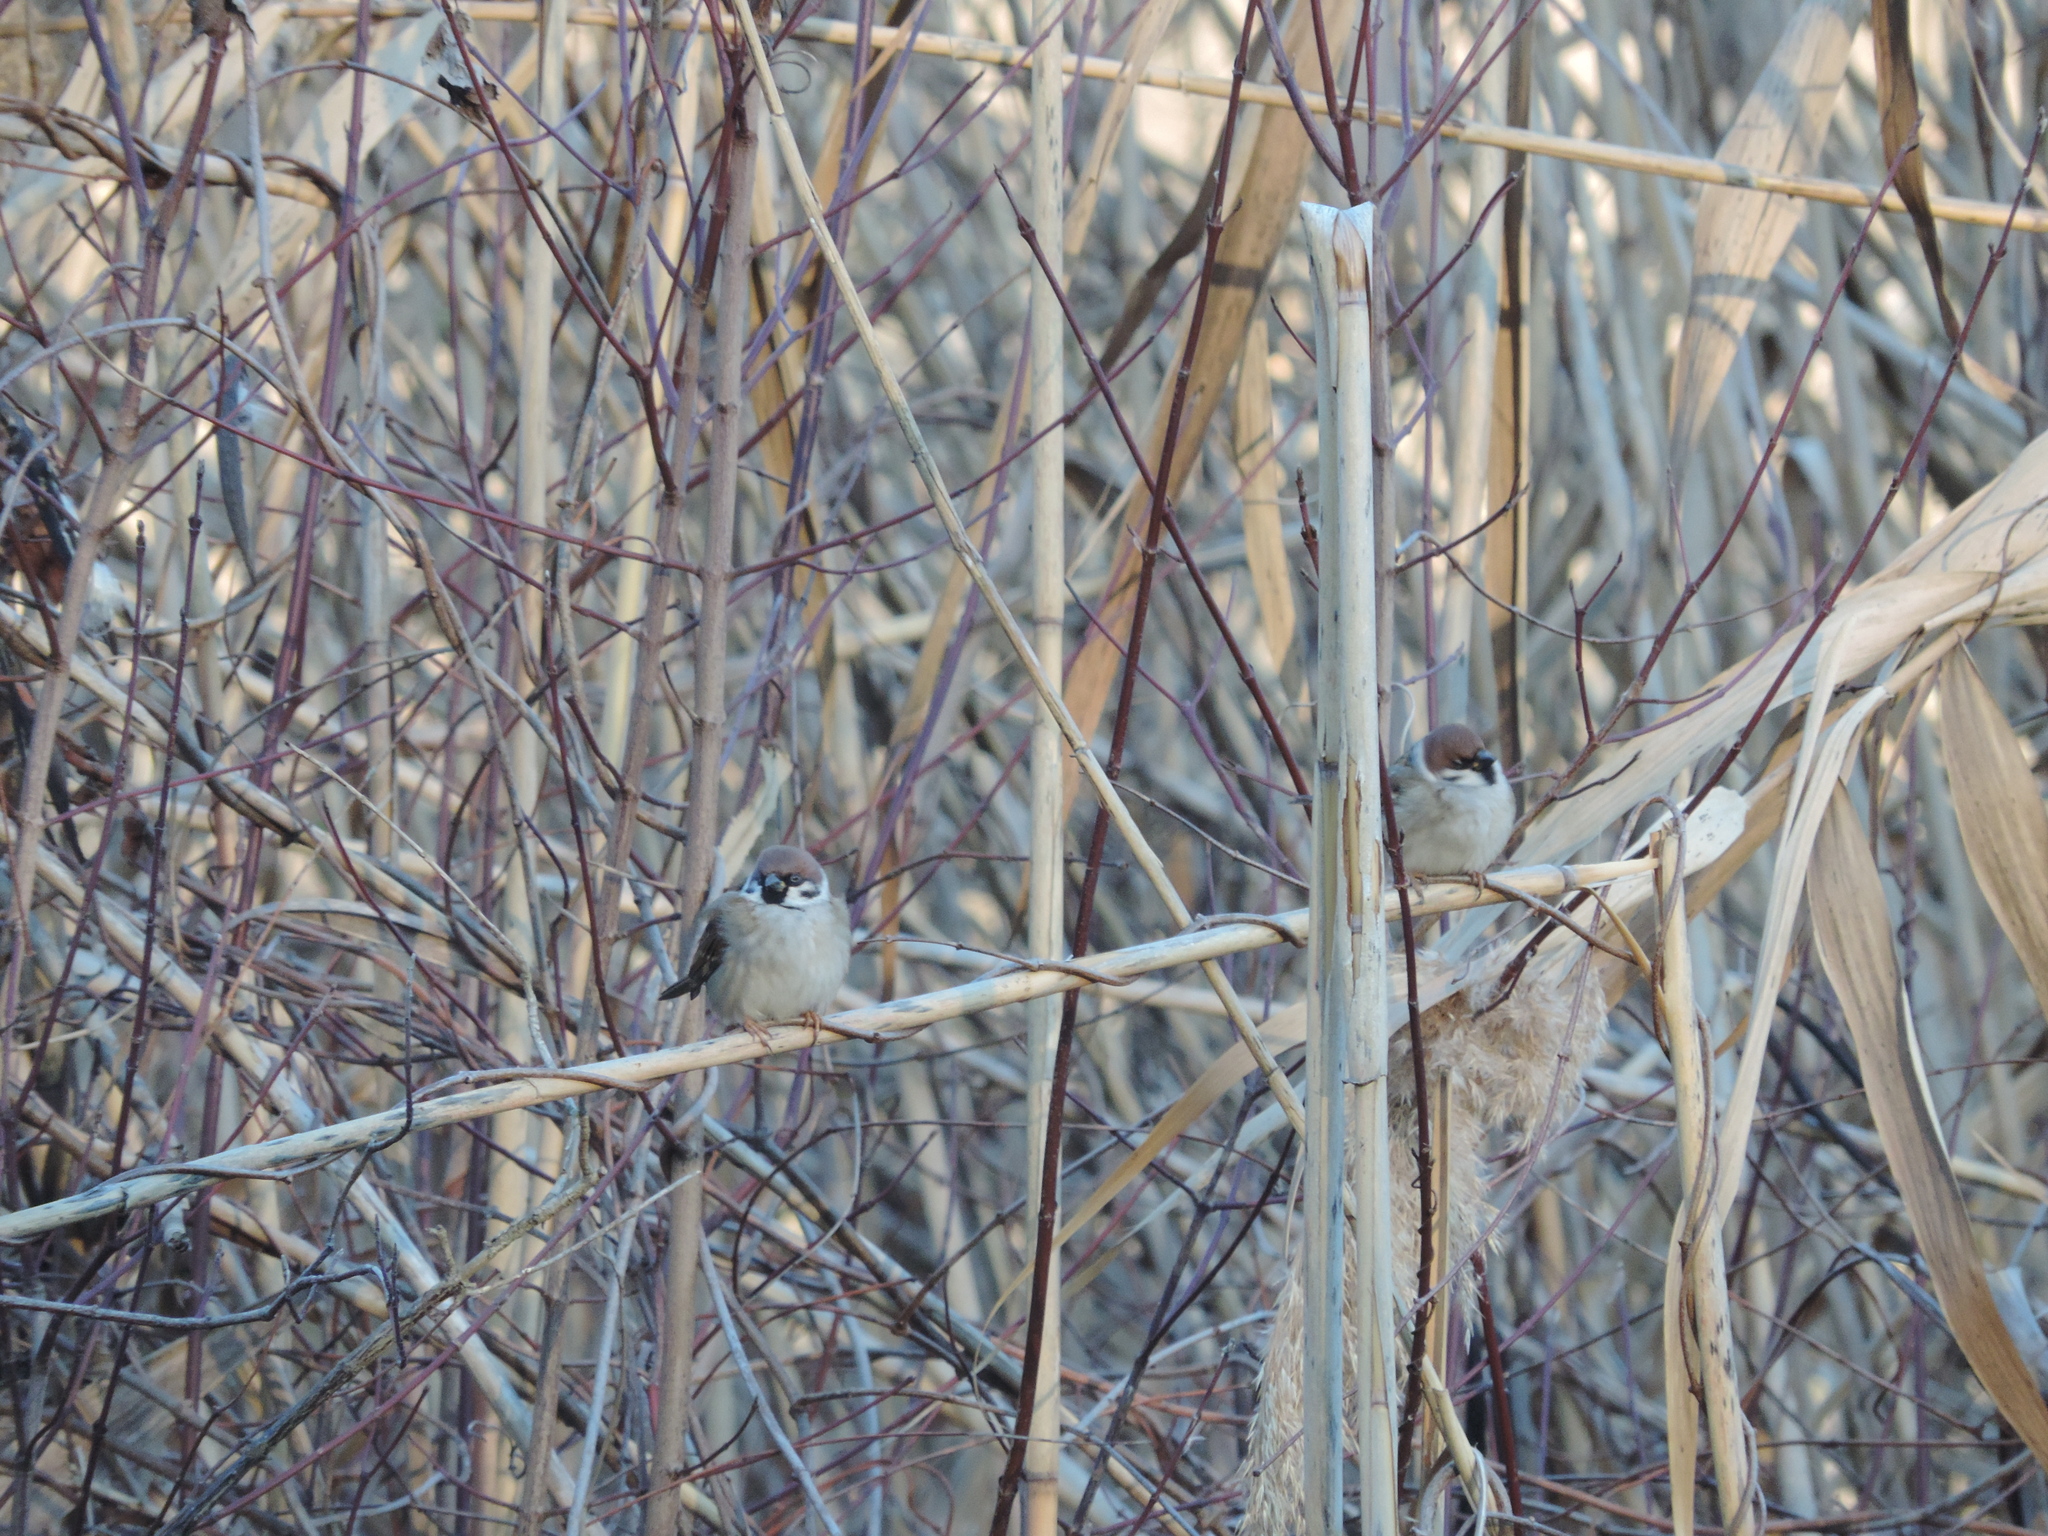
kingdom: Animalia
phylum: Chordata
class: Aves
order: Passeriformes
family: Passeridae
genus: Passer
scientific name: Passer montanus
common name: Eurasian tree sparrow
